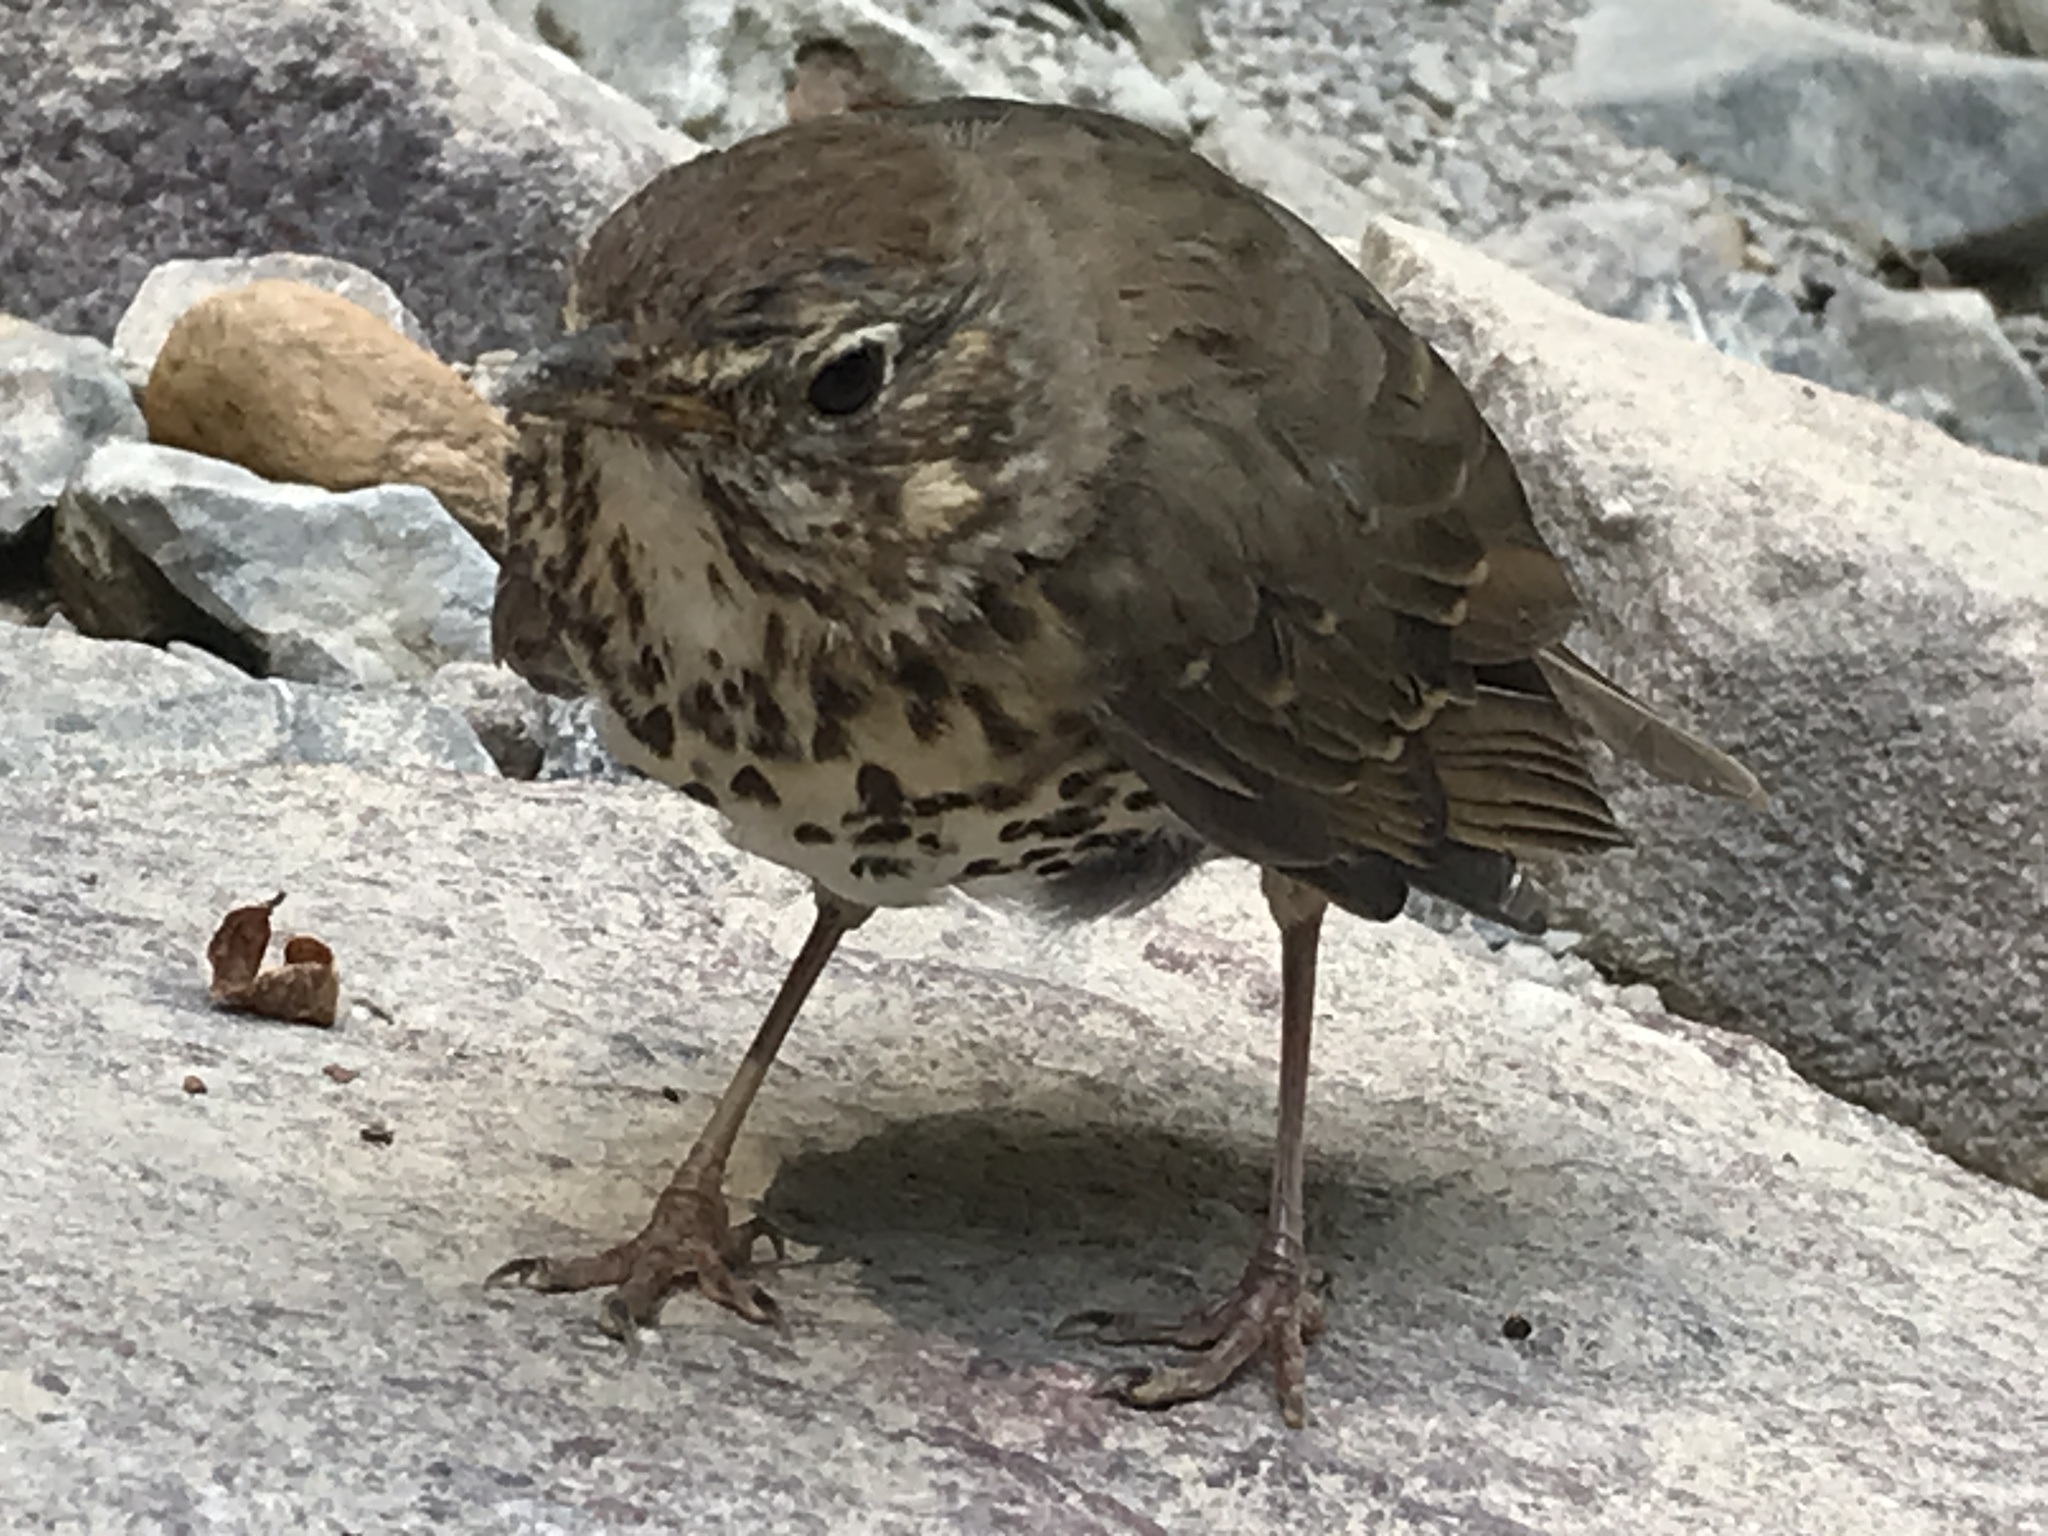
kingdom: Animalia
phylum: Chordata
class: Aves
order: Passeriformes
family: Turdidae
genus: Turdus
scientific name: Turdus philomelos
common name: Song thrush
